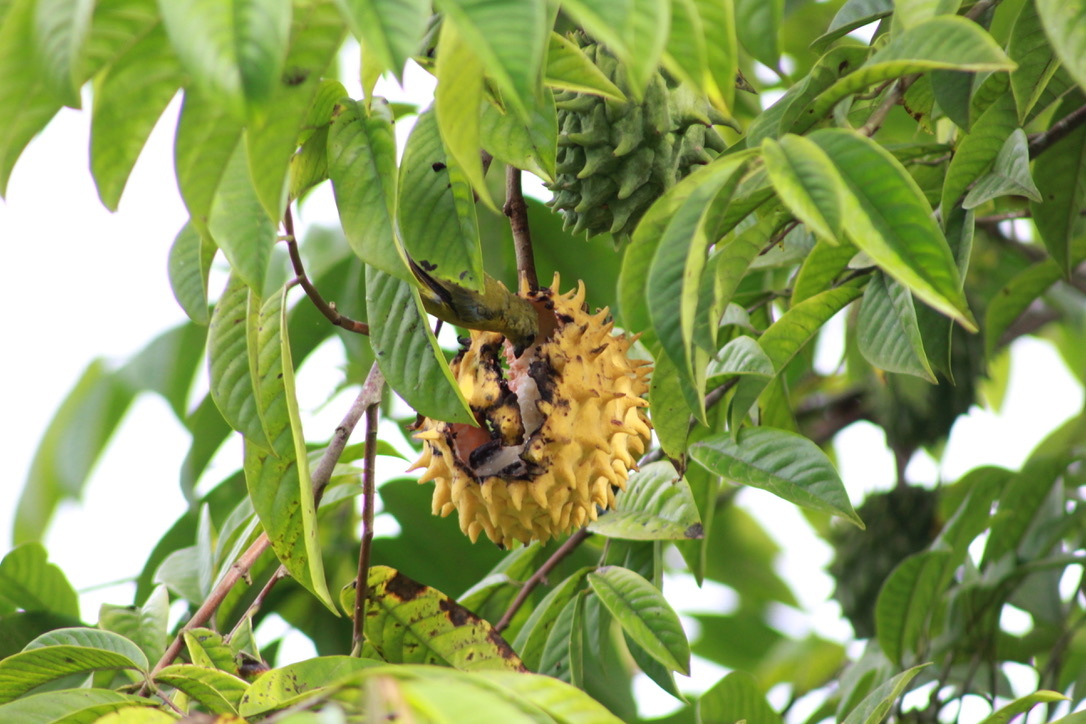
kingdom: Animalia
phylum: Chordata
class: Aves
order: Passeriformes
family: Fringillidae
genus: Euphonia
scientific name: Euphonia violacea
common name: Violaceous euphonia
